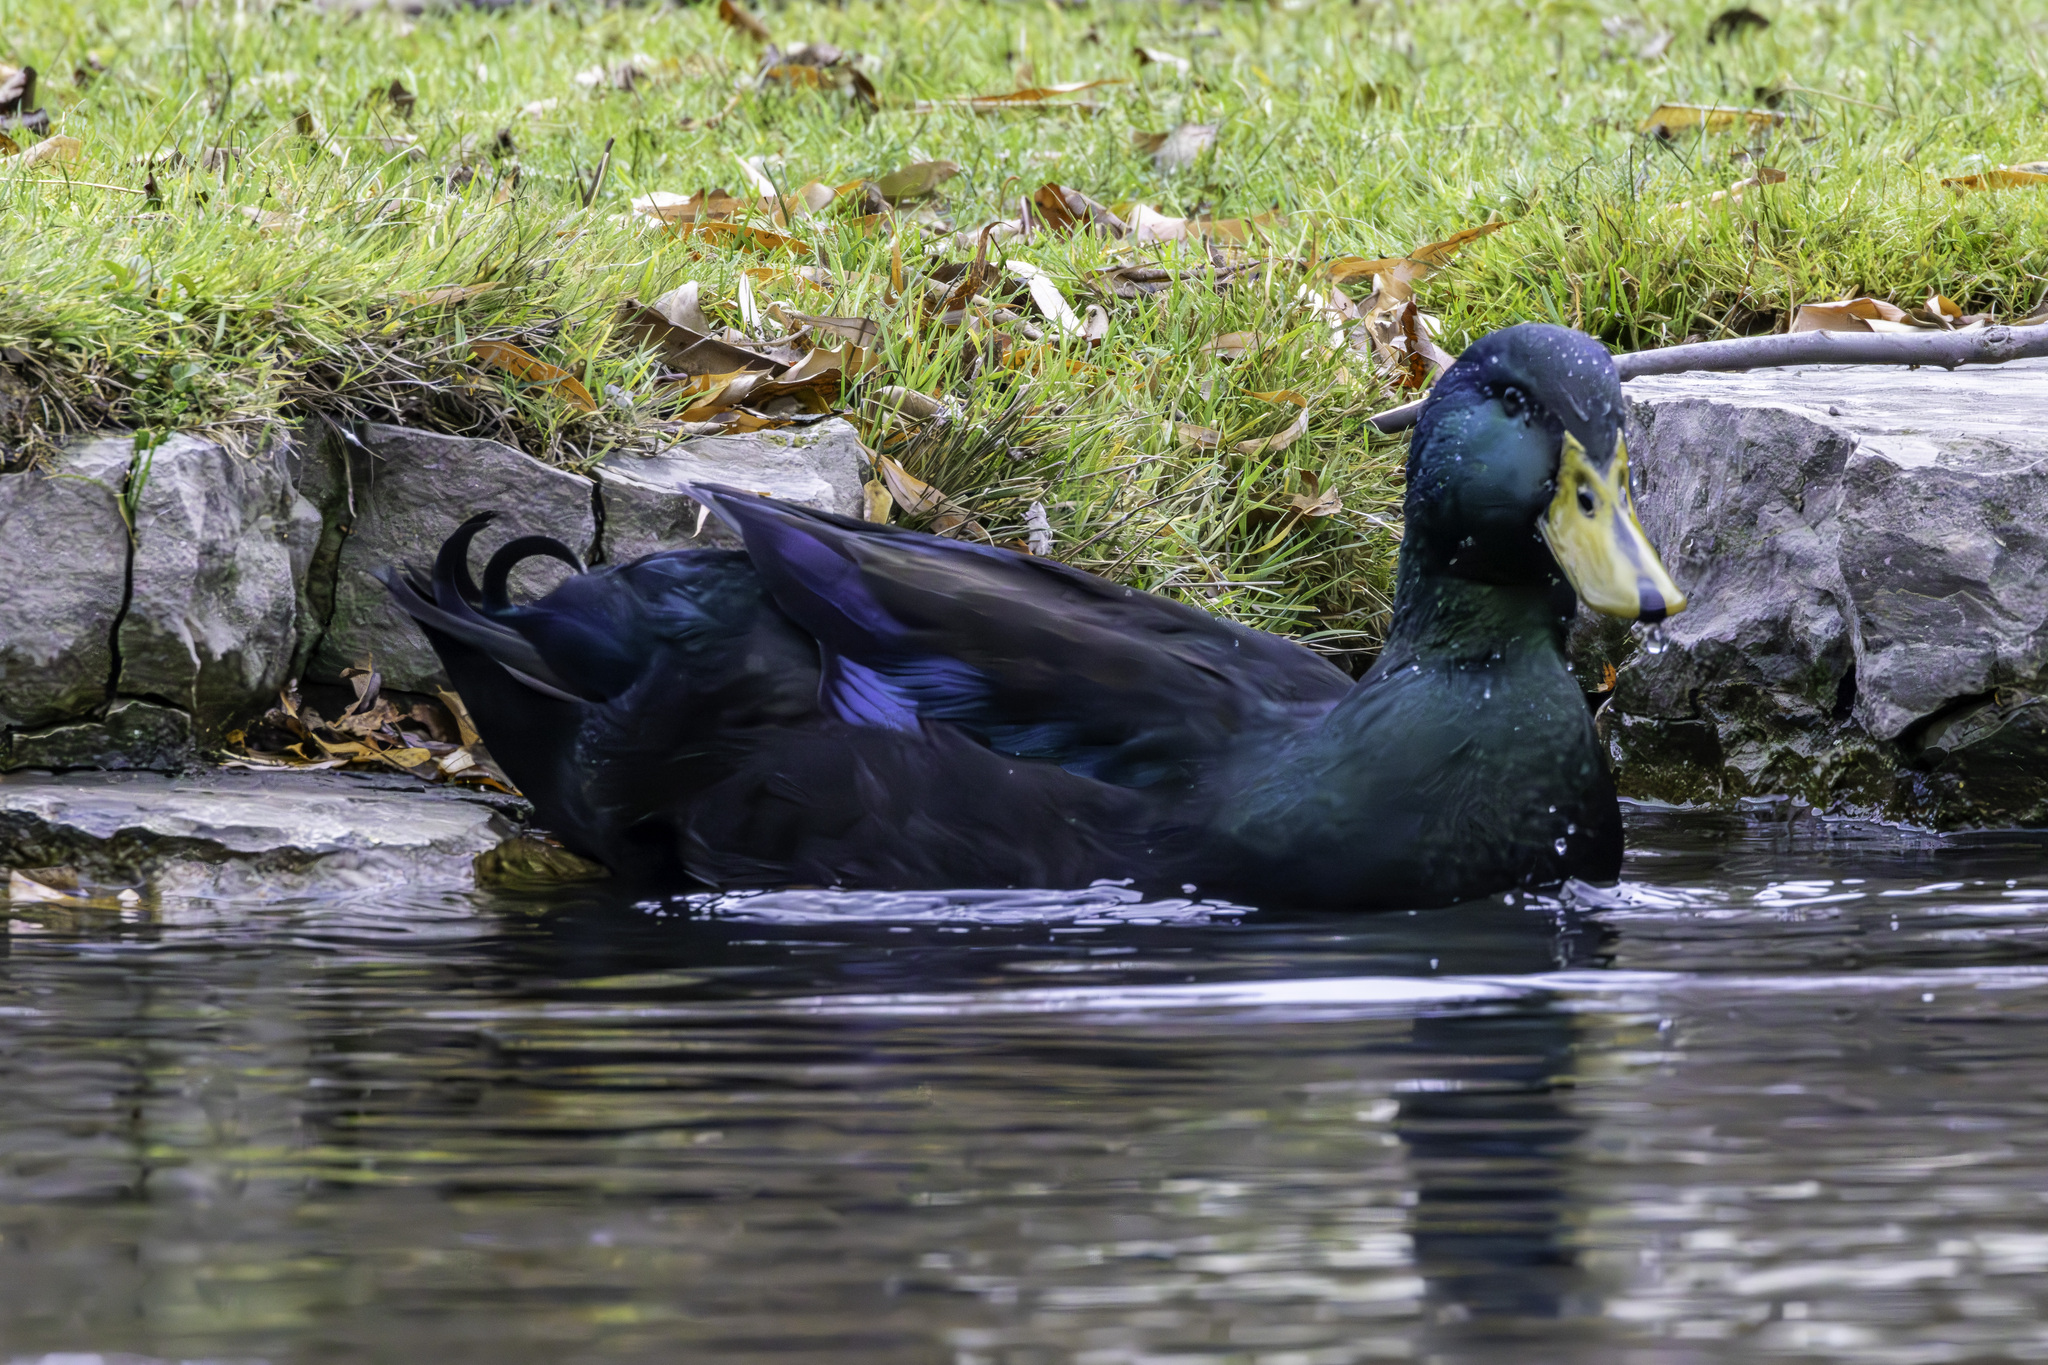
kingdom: Animalia
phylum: Chordata
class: Aves
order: Anseriformes
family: Anatidae
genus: Anas
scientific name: Anas platyrhynchos
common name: Mallard
